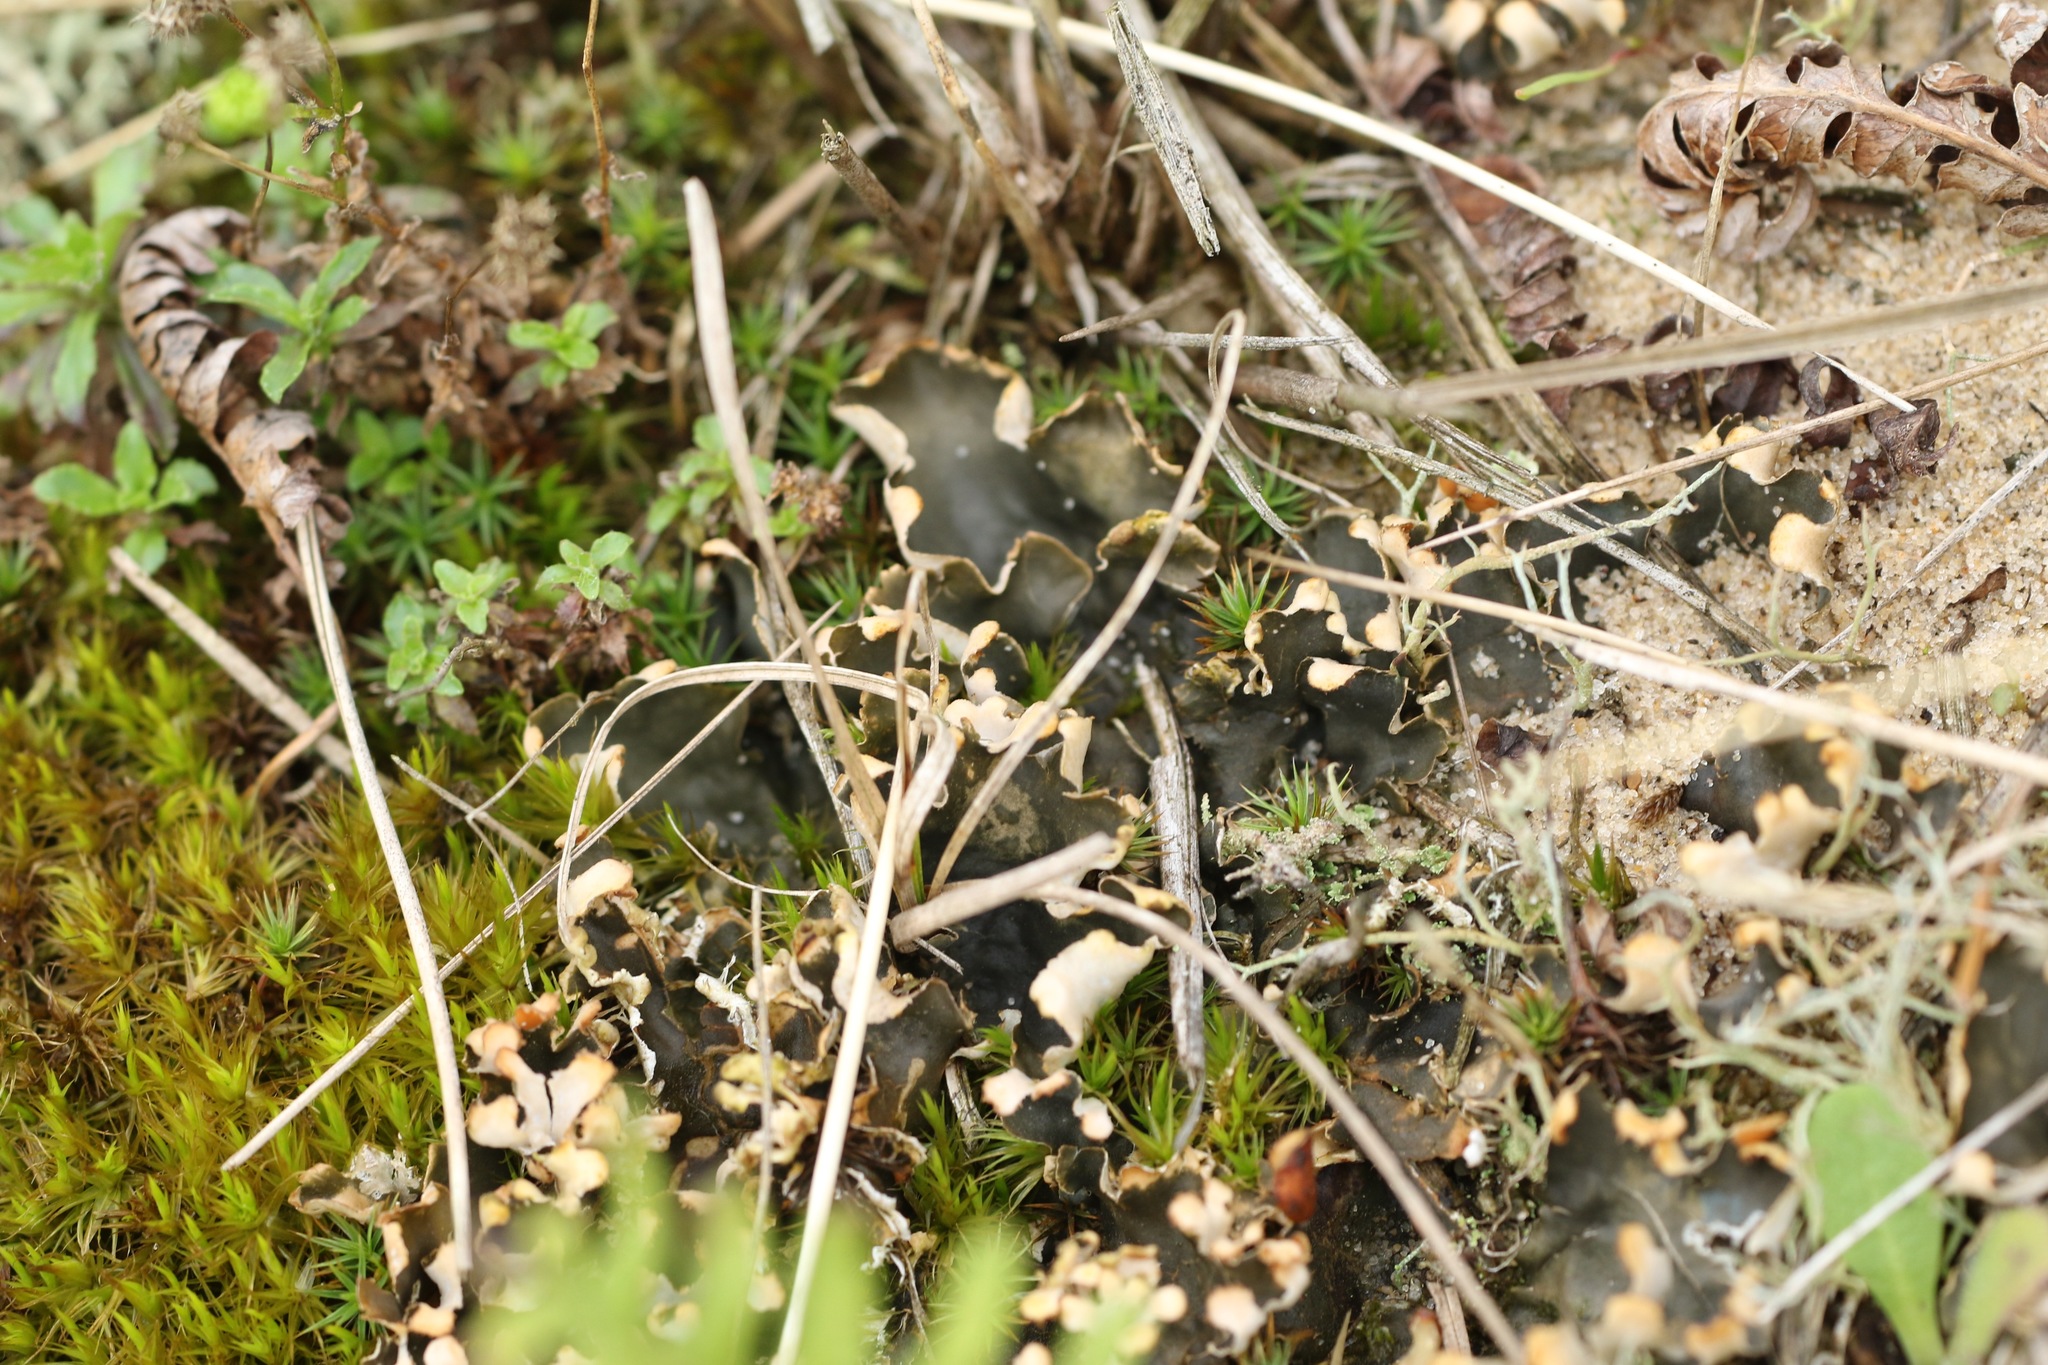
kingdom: Fungi
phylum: Ascomycota
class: Lecanoromycetes
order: Peltigerales
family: Peltigeraceae
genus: Peltigera
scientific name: Peltigera
